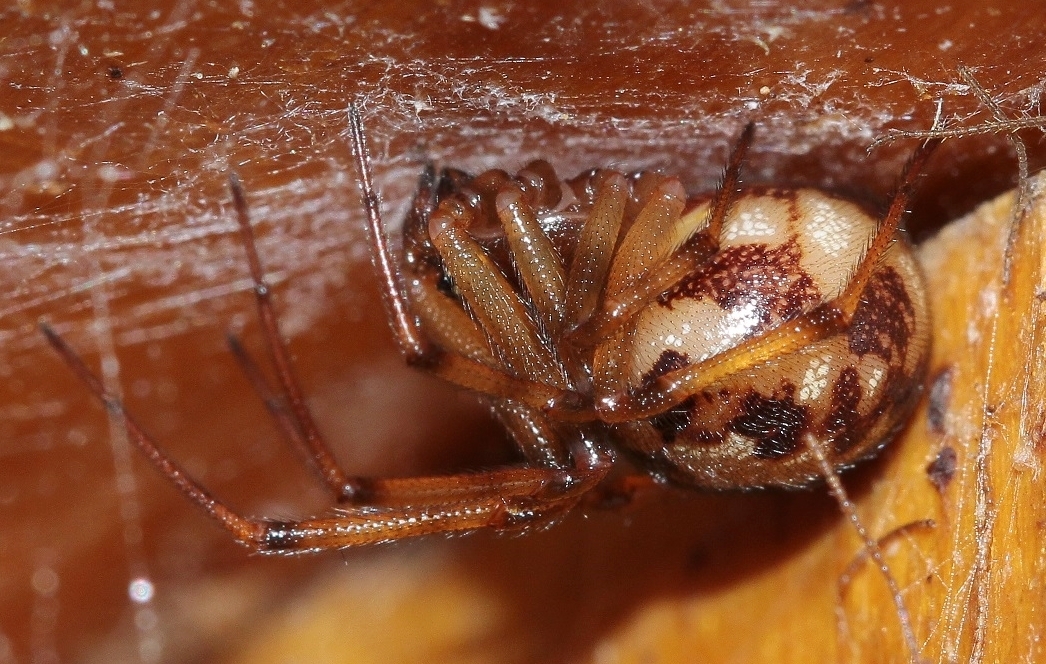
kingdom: Animalia
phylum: Arthropoda
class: Arachnida
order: Araneae
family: Theridiidae
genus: Steatoda
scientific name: Steatoda triangulosa
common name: Triangulate bud spider
